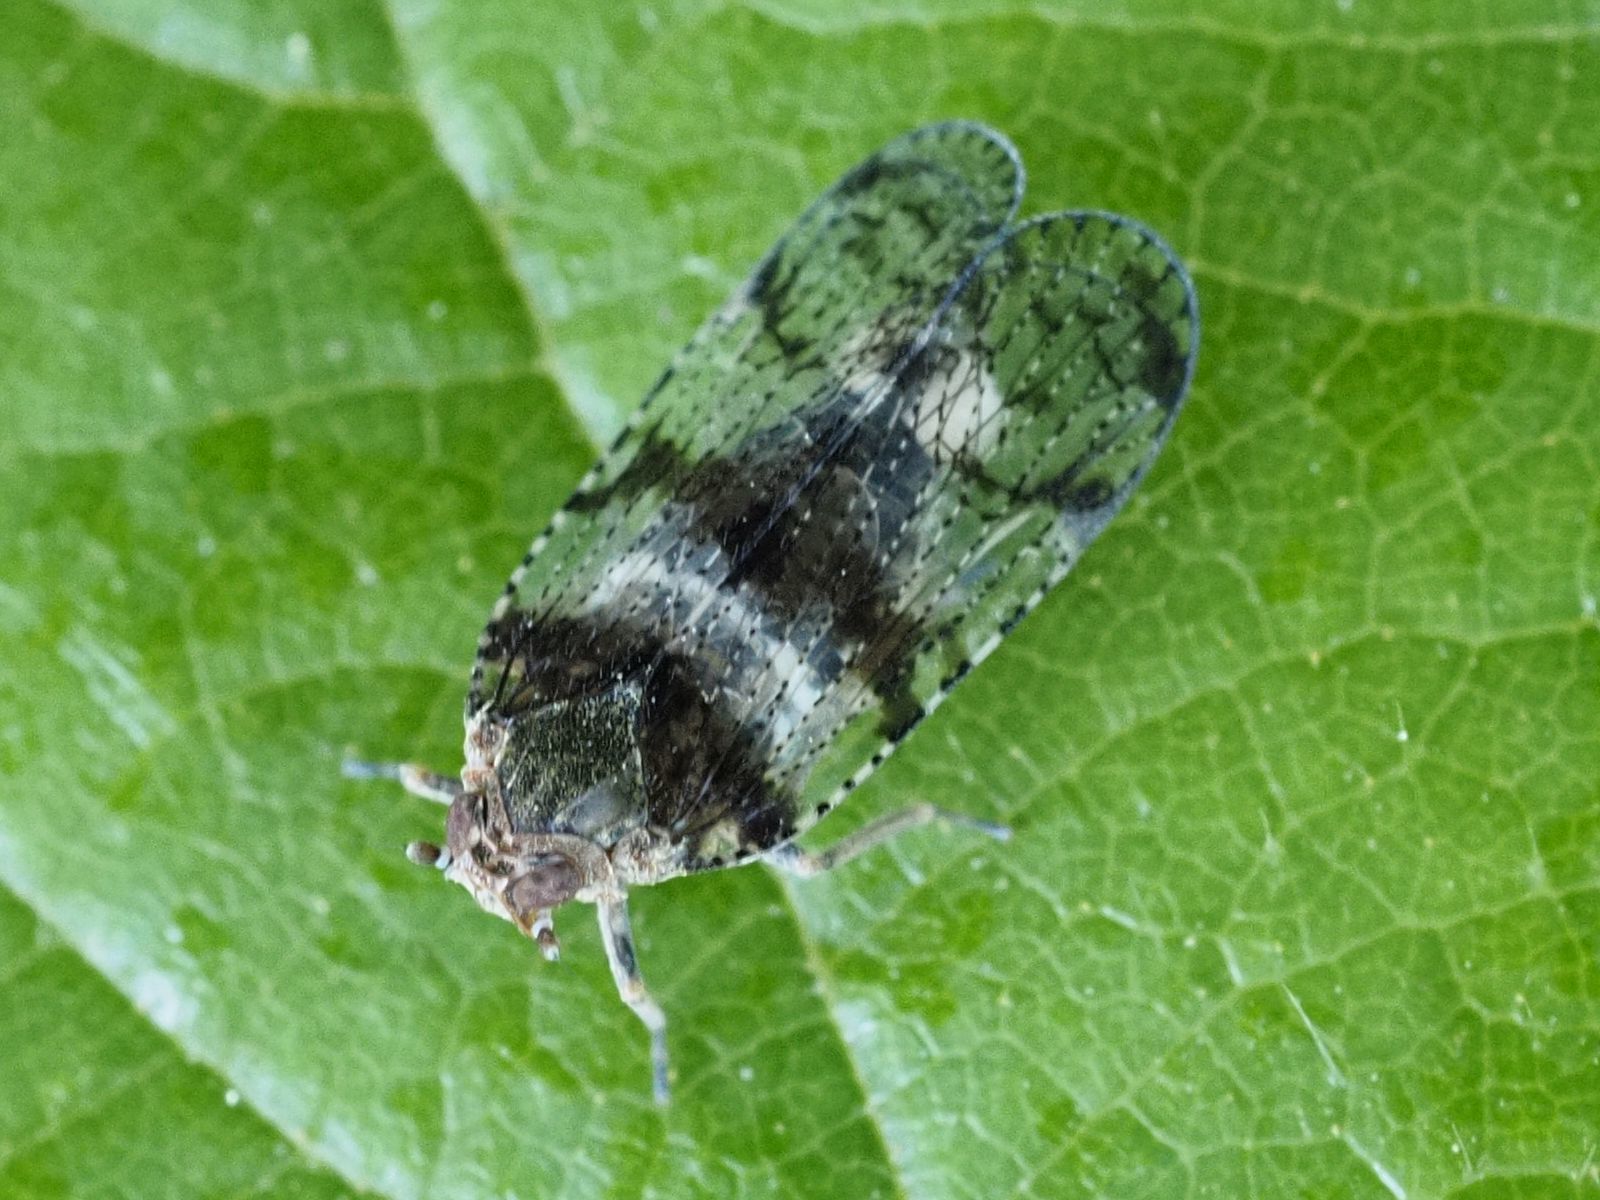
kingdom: Animalia
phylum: Arthropoda
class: Insecta
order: Hemiptera
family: Cixiidae
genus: Cixius
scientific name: Cixius nervosus
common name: Common lacehopper
